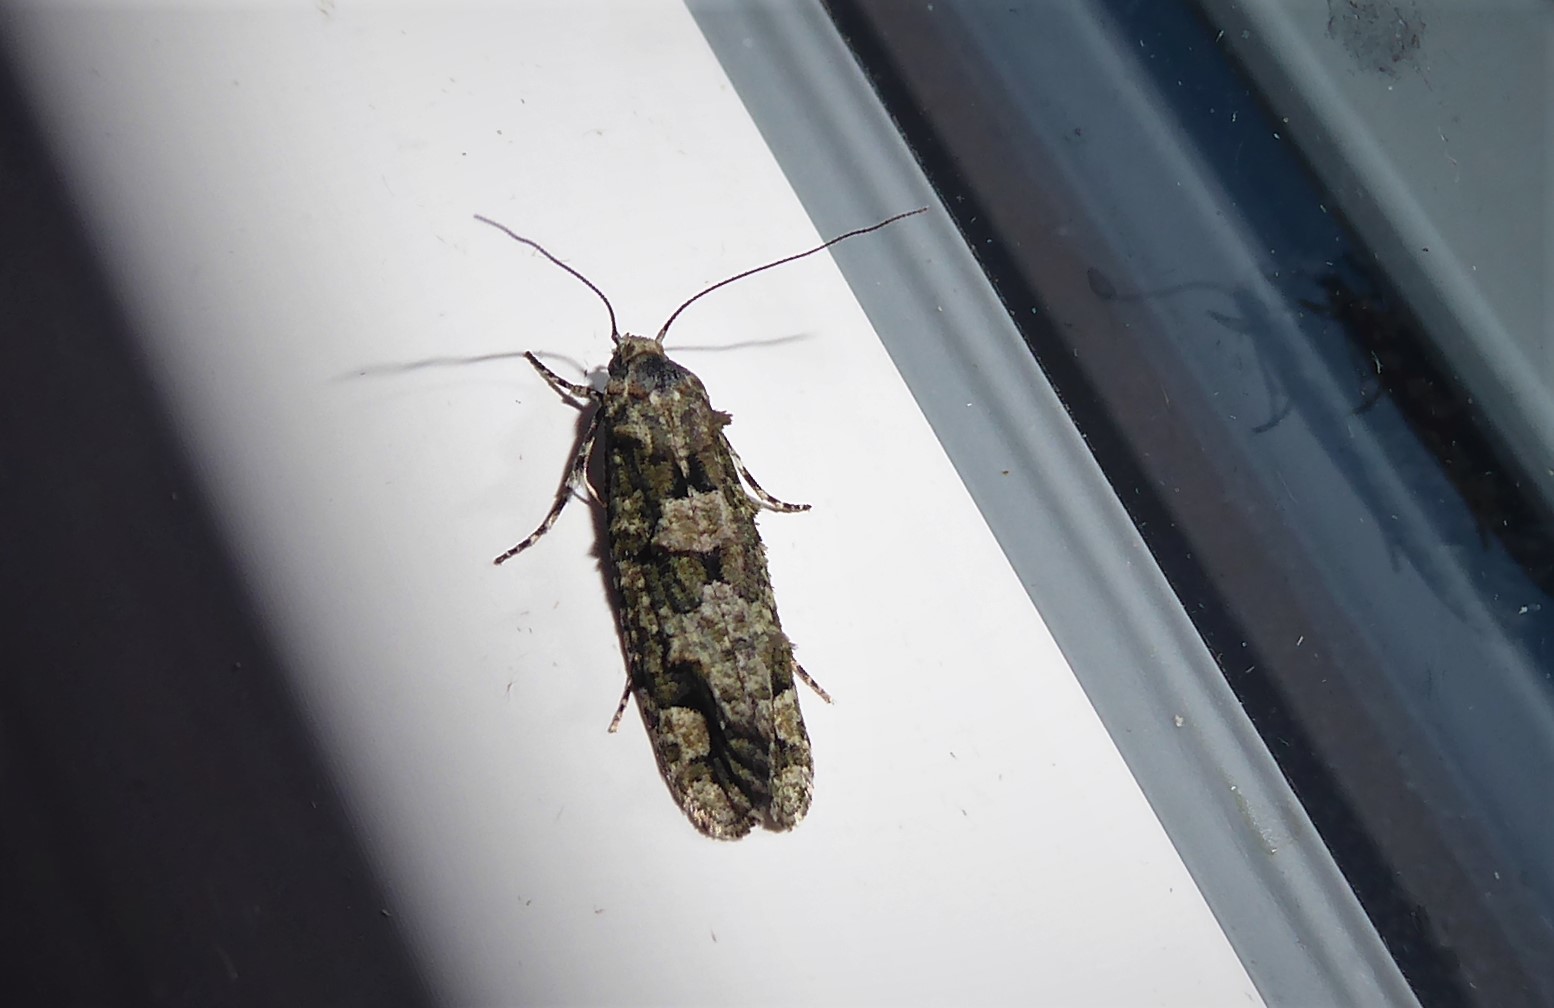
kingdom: Animalia
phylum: Arthropoda
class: Insecta
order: Lepidoptera
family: Tineidae
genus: Lysiphragma
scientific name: Lysiphragma howesii
